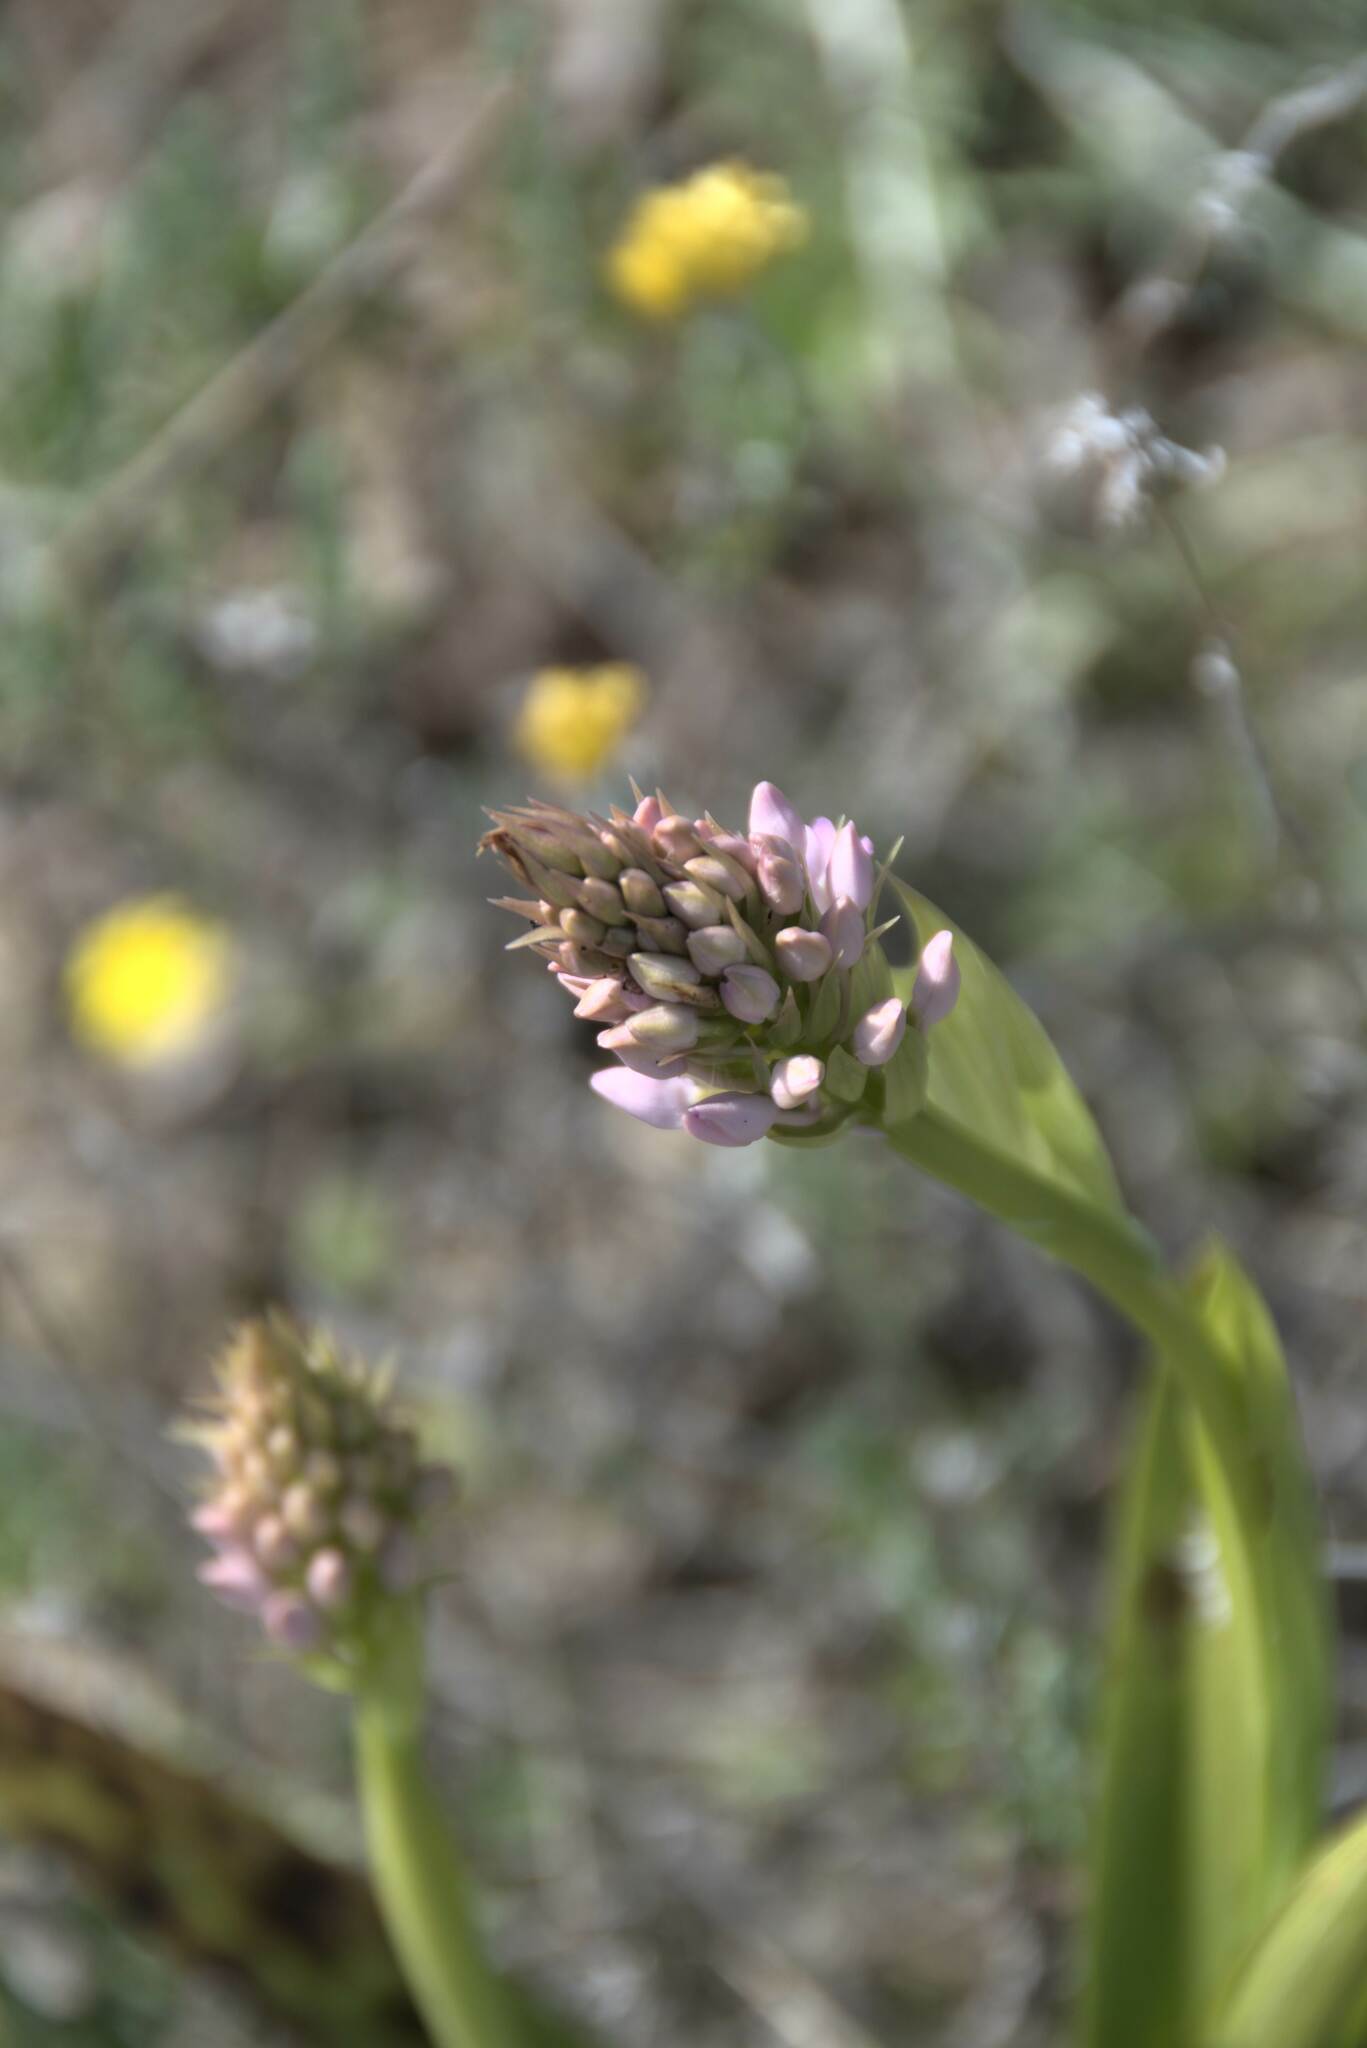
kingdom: Plantae
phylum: Tracheophyta
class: Liliopsida
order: Asparagales
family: Orchidaceae
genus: Anacamptis
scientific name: Anacamptis pyramidalis
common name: Pyramidal orchid
